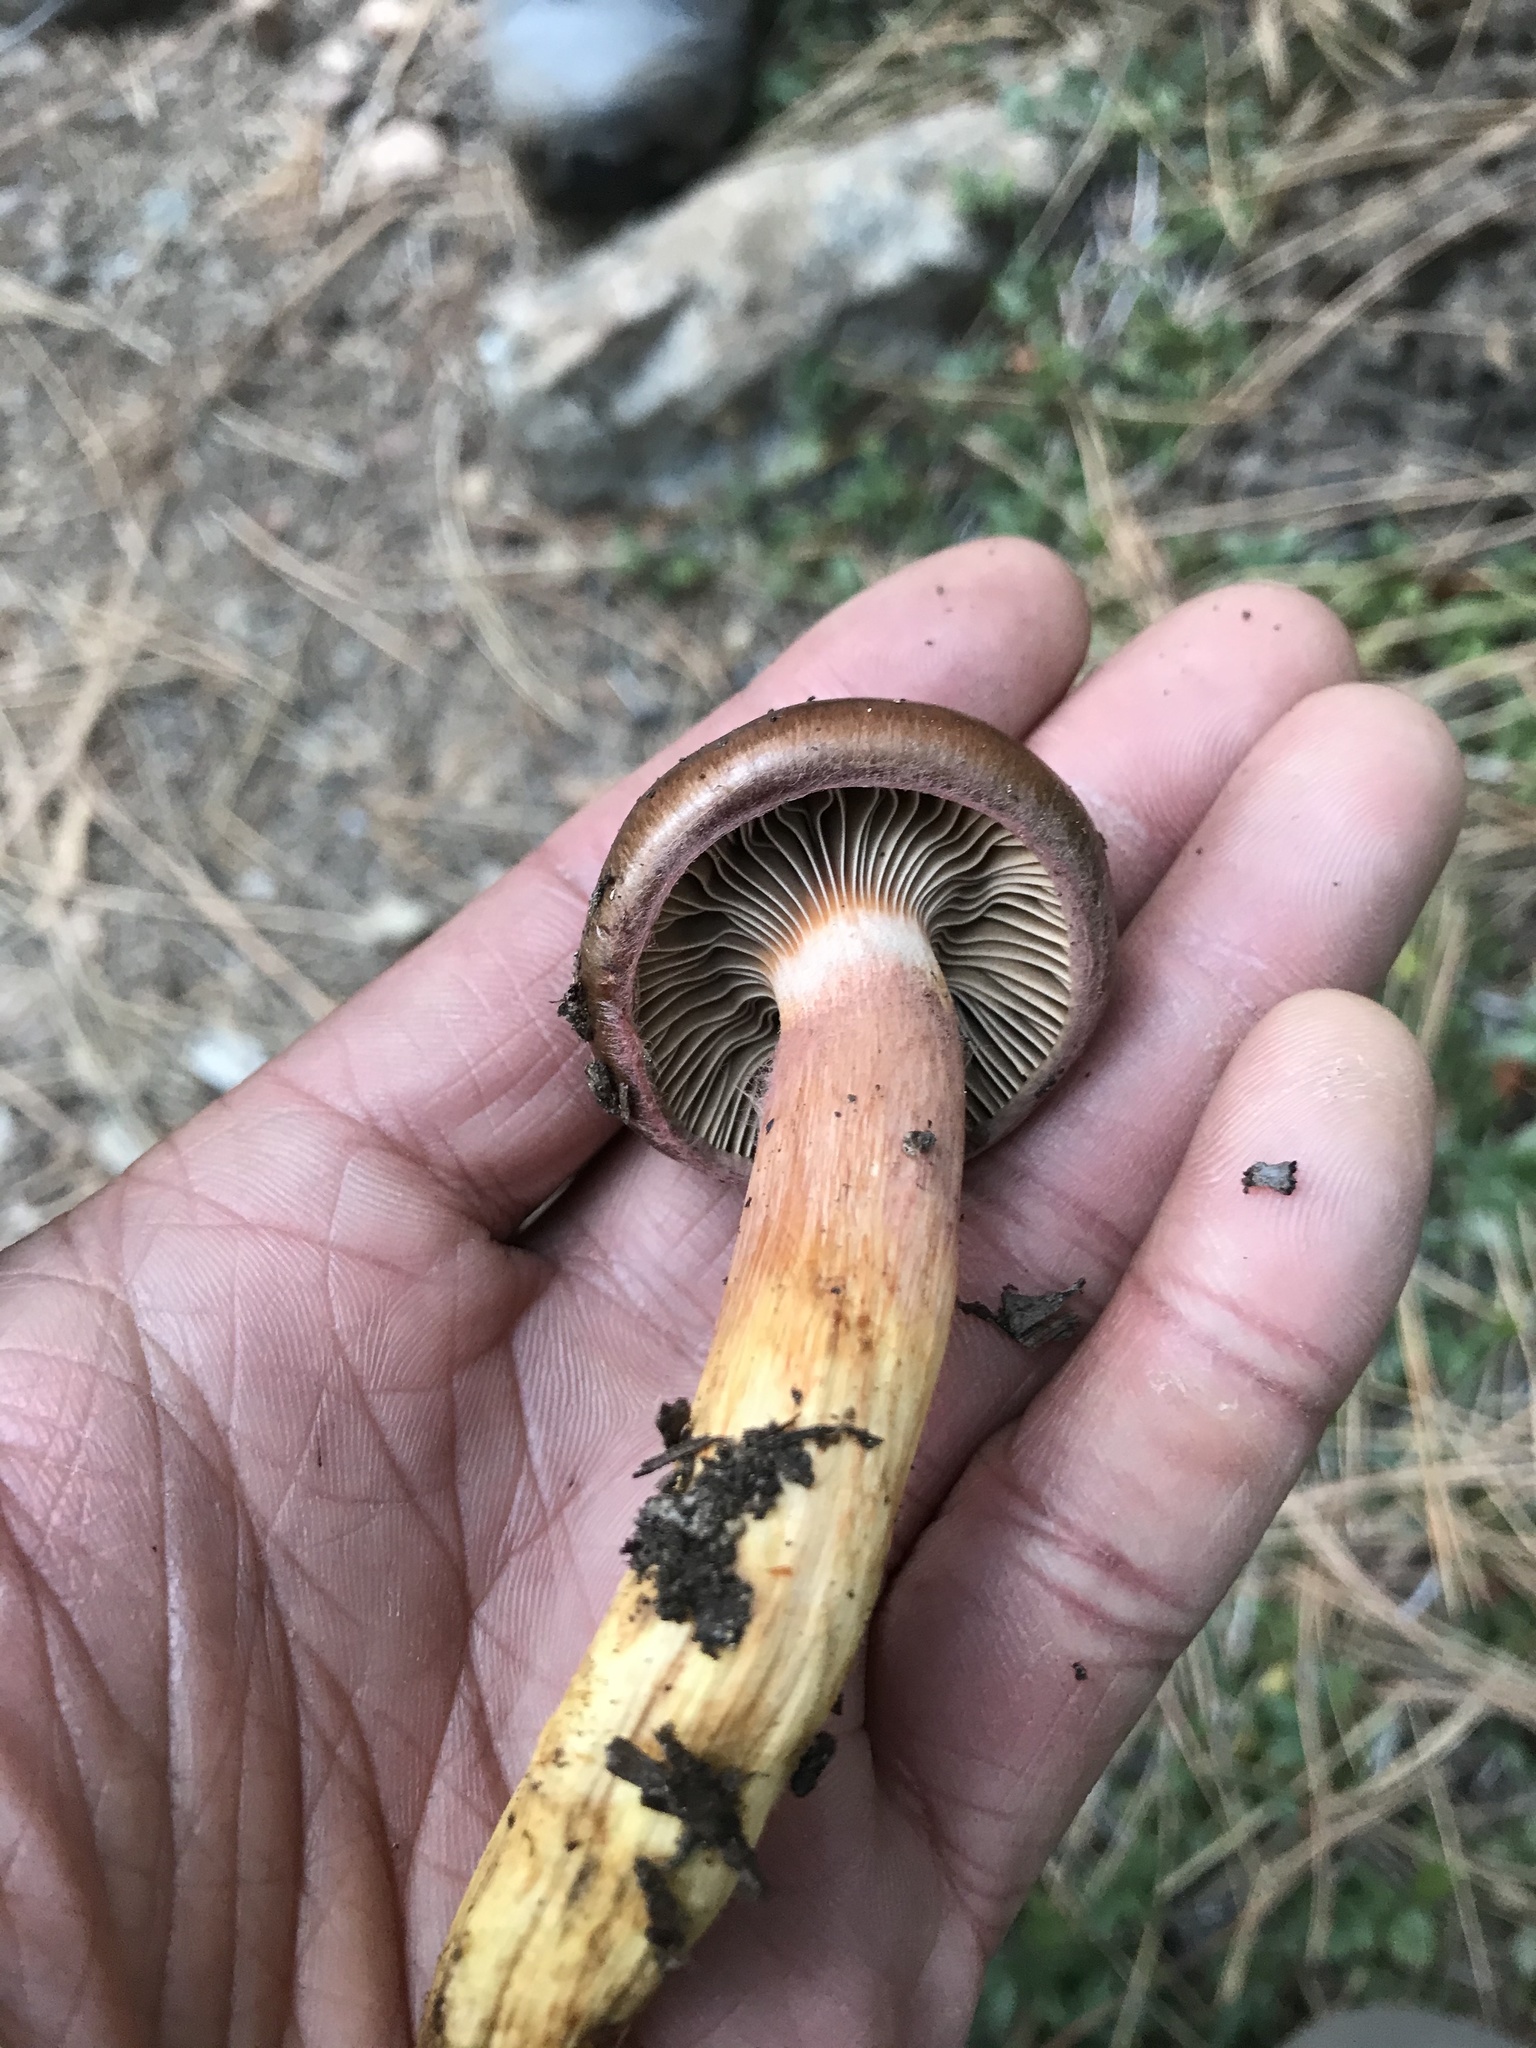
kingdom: Fungi
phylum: Basidiomycota
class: Agaricomycetes
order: Boletales
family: Gomphidiaceae
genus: Chroogomphus
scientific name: Chroogomphus vinicolor
